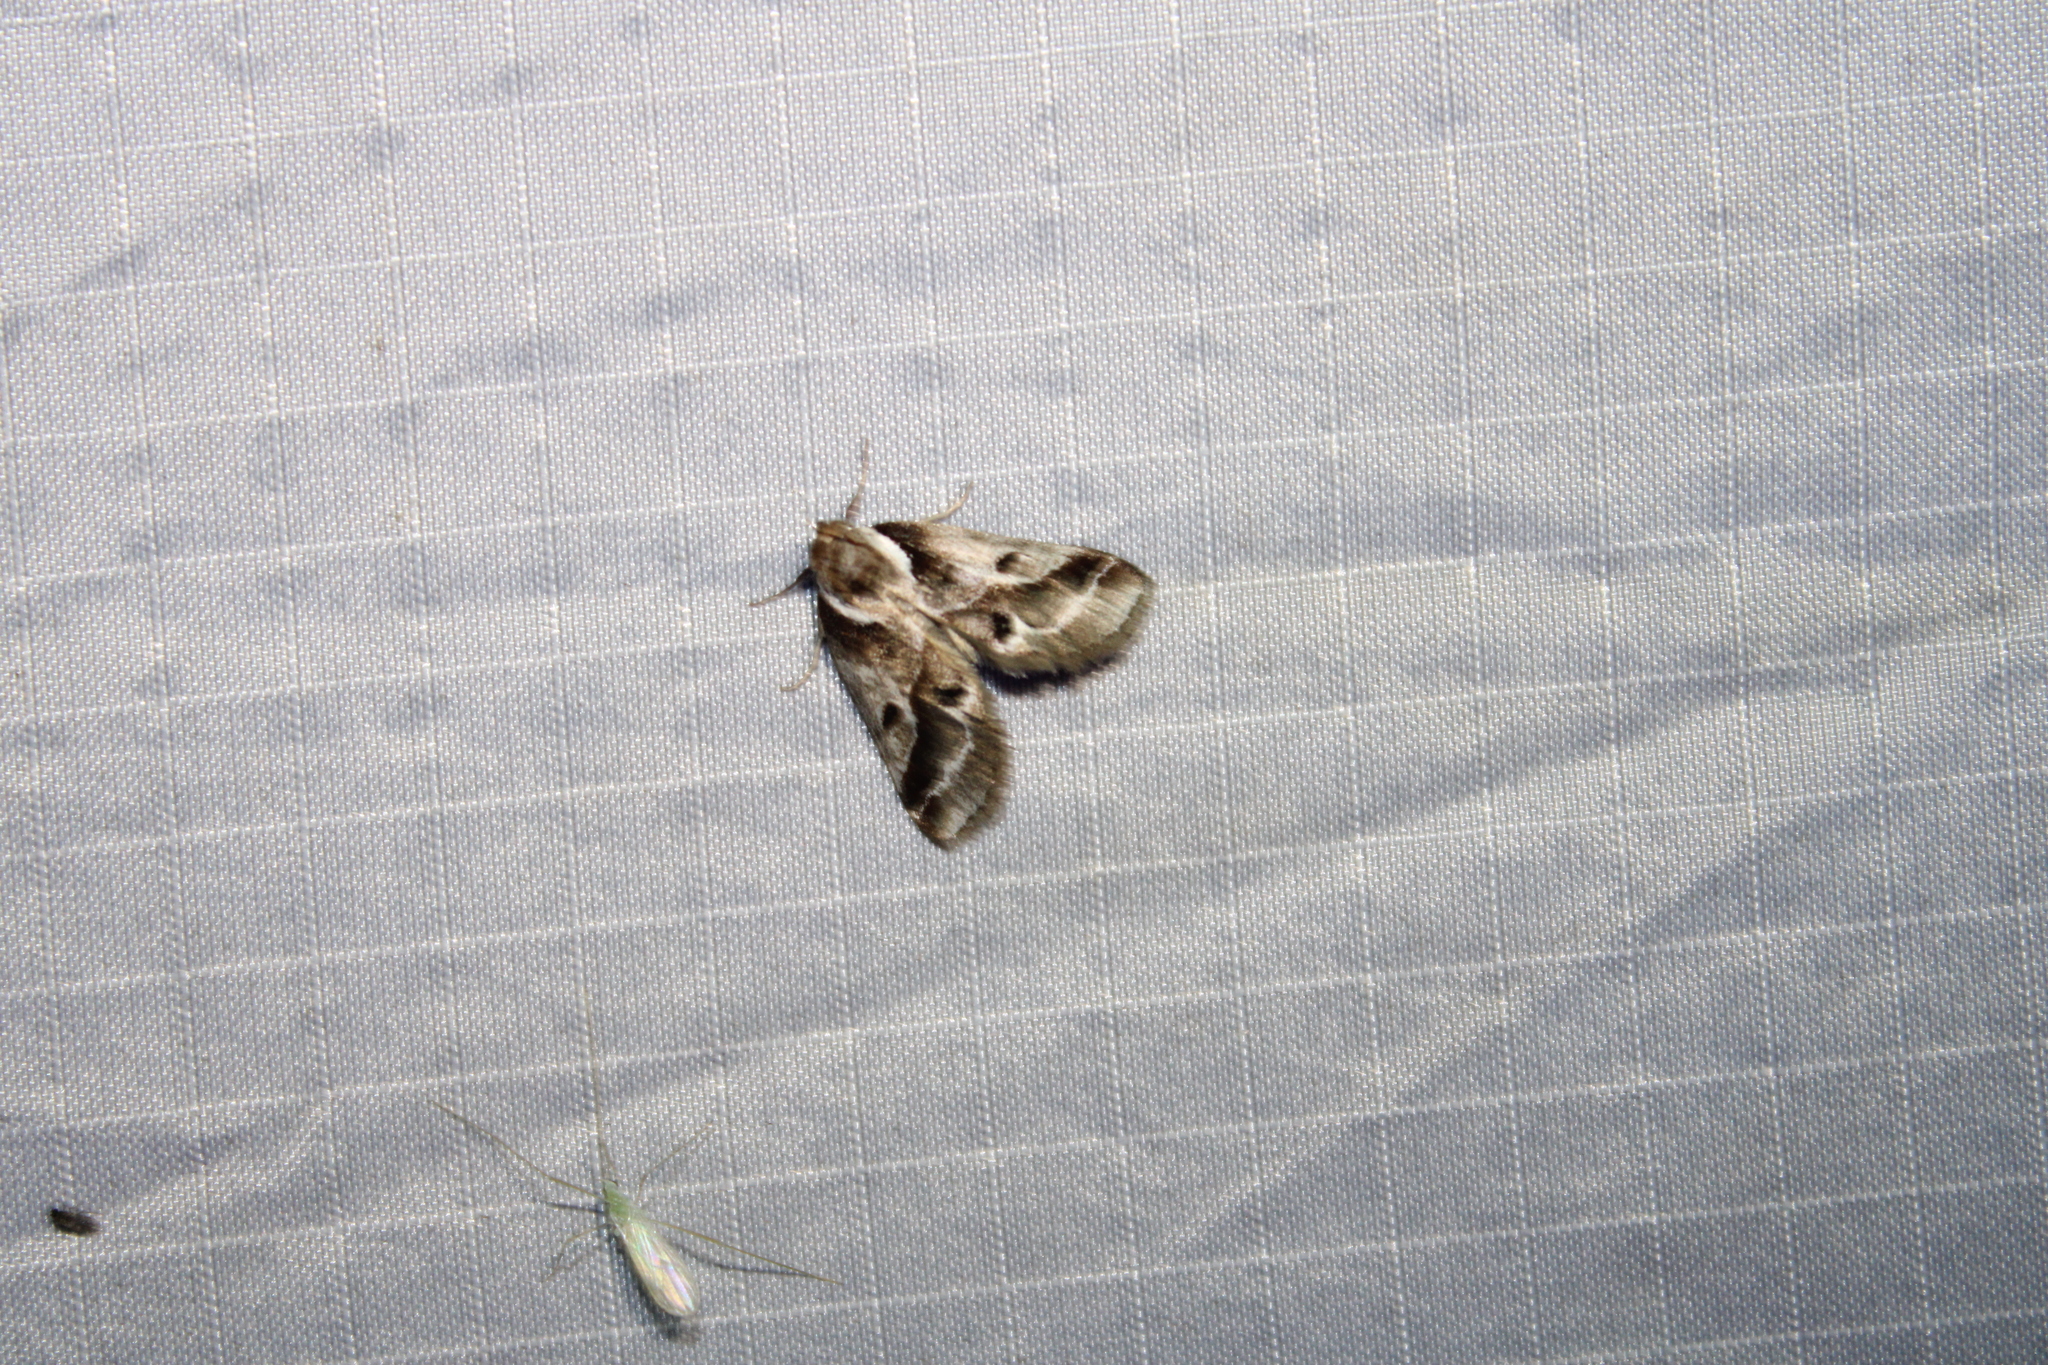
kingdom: Animalia
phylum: Arthropoda
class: Insecta
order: Lepidoptera
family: Nolidae
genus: Baileya
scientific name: Baileya doubledayi
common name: Doubleday's baileya moth
